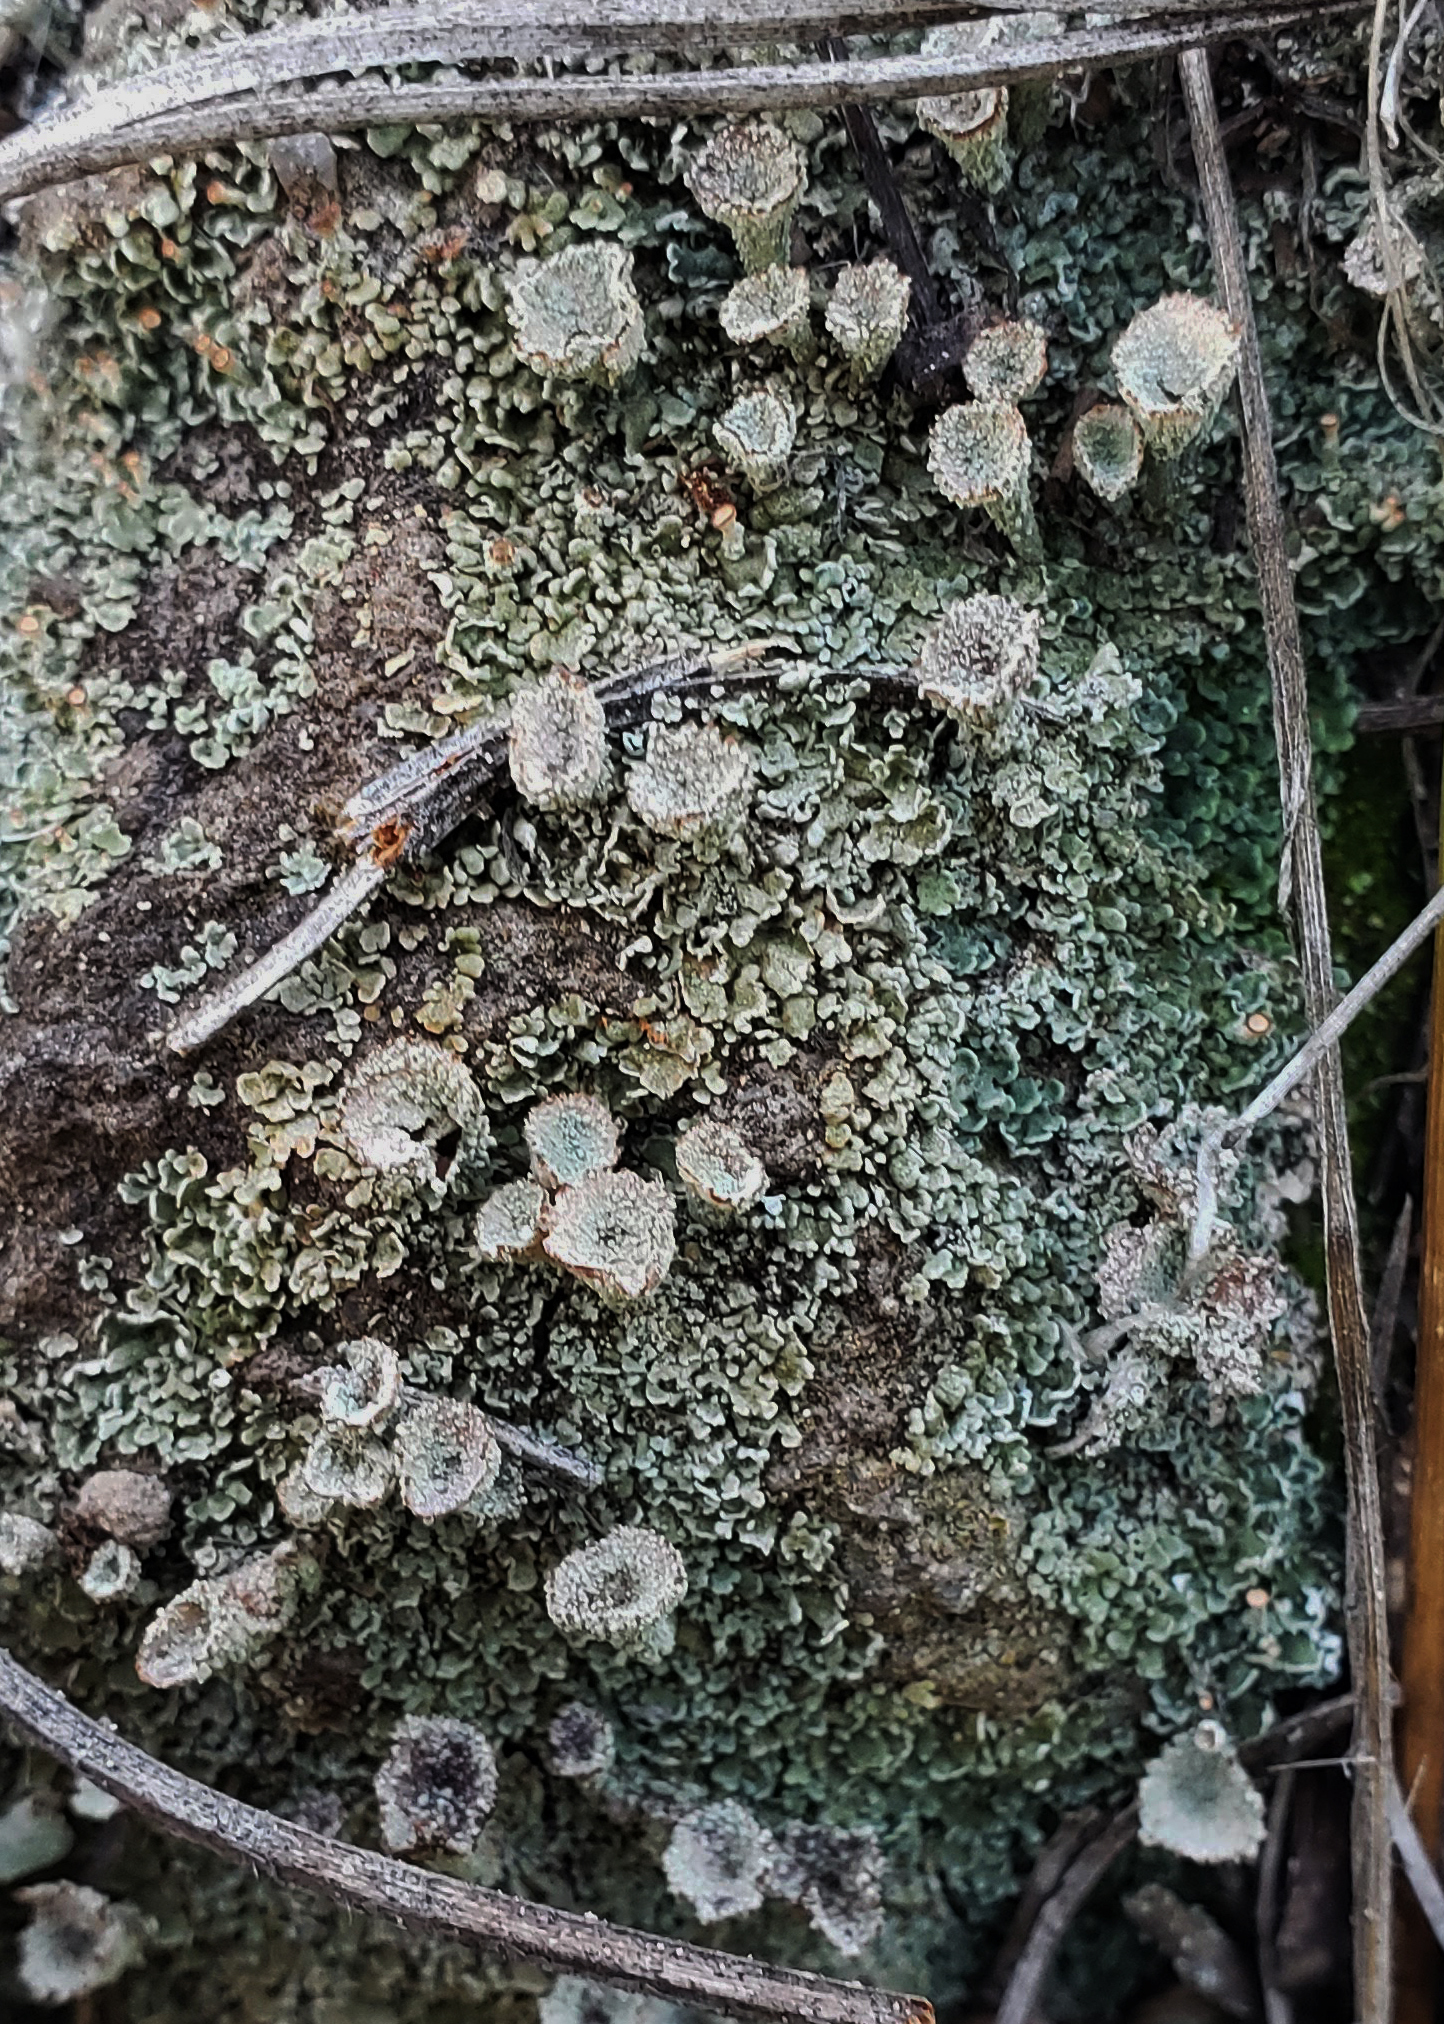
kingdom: Fungi
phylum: Ascomycota
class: Lecanoromycetes
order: Lecanorales
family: Cladoniaceae
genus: Cladonia
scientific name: Cladonia pyxidata
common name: Pebbled pixie cup
